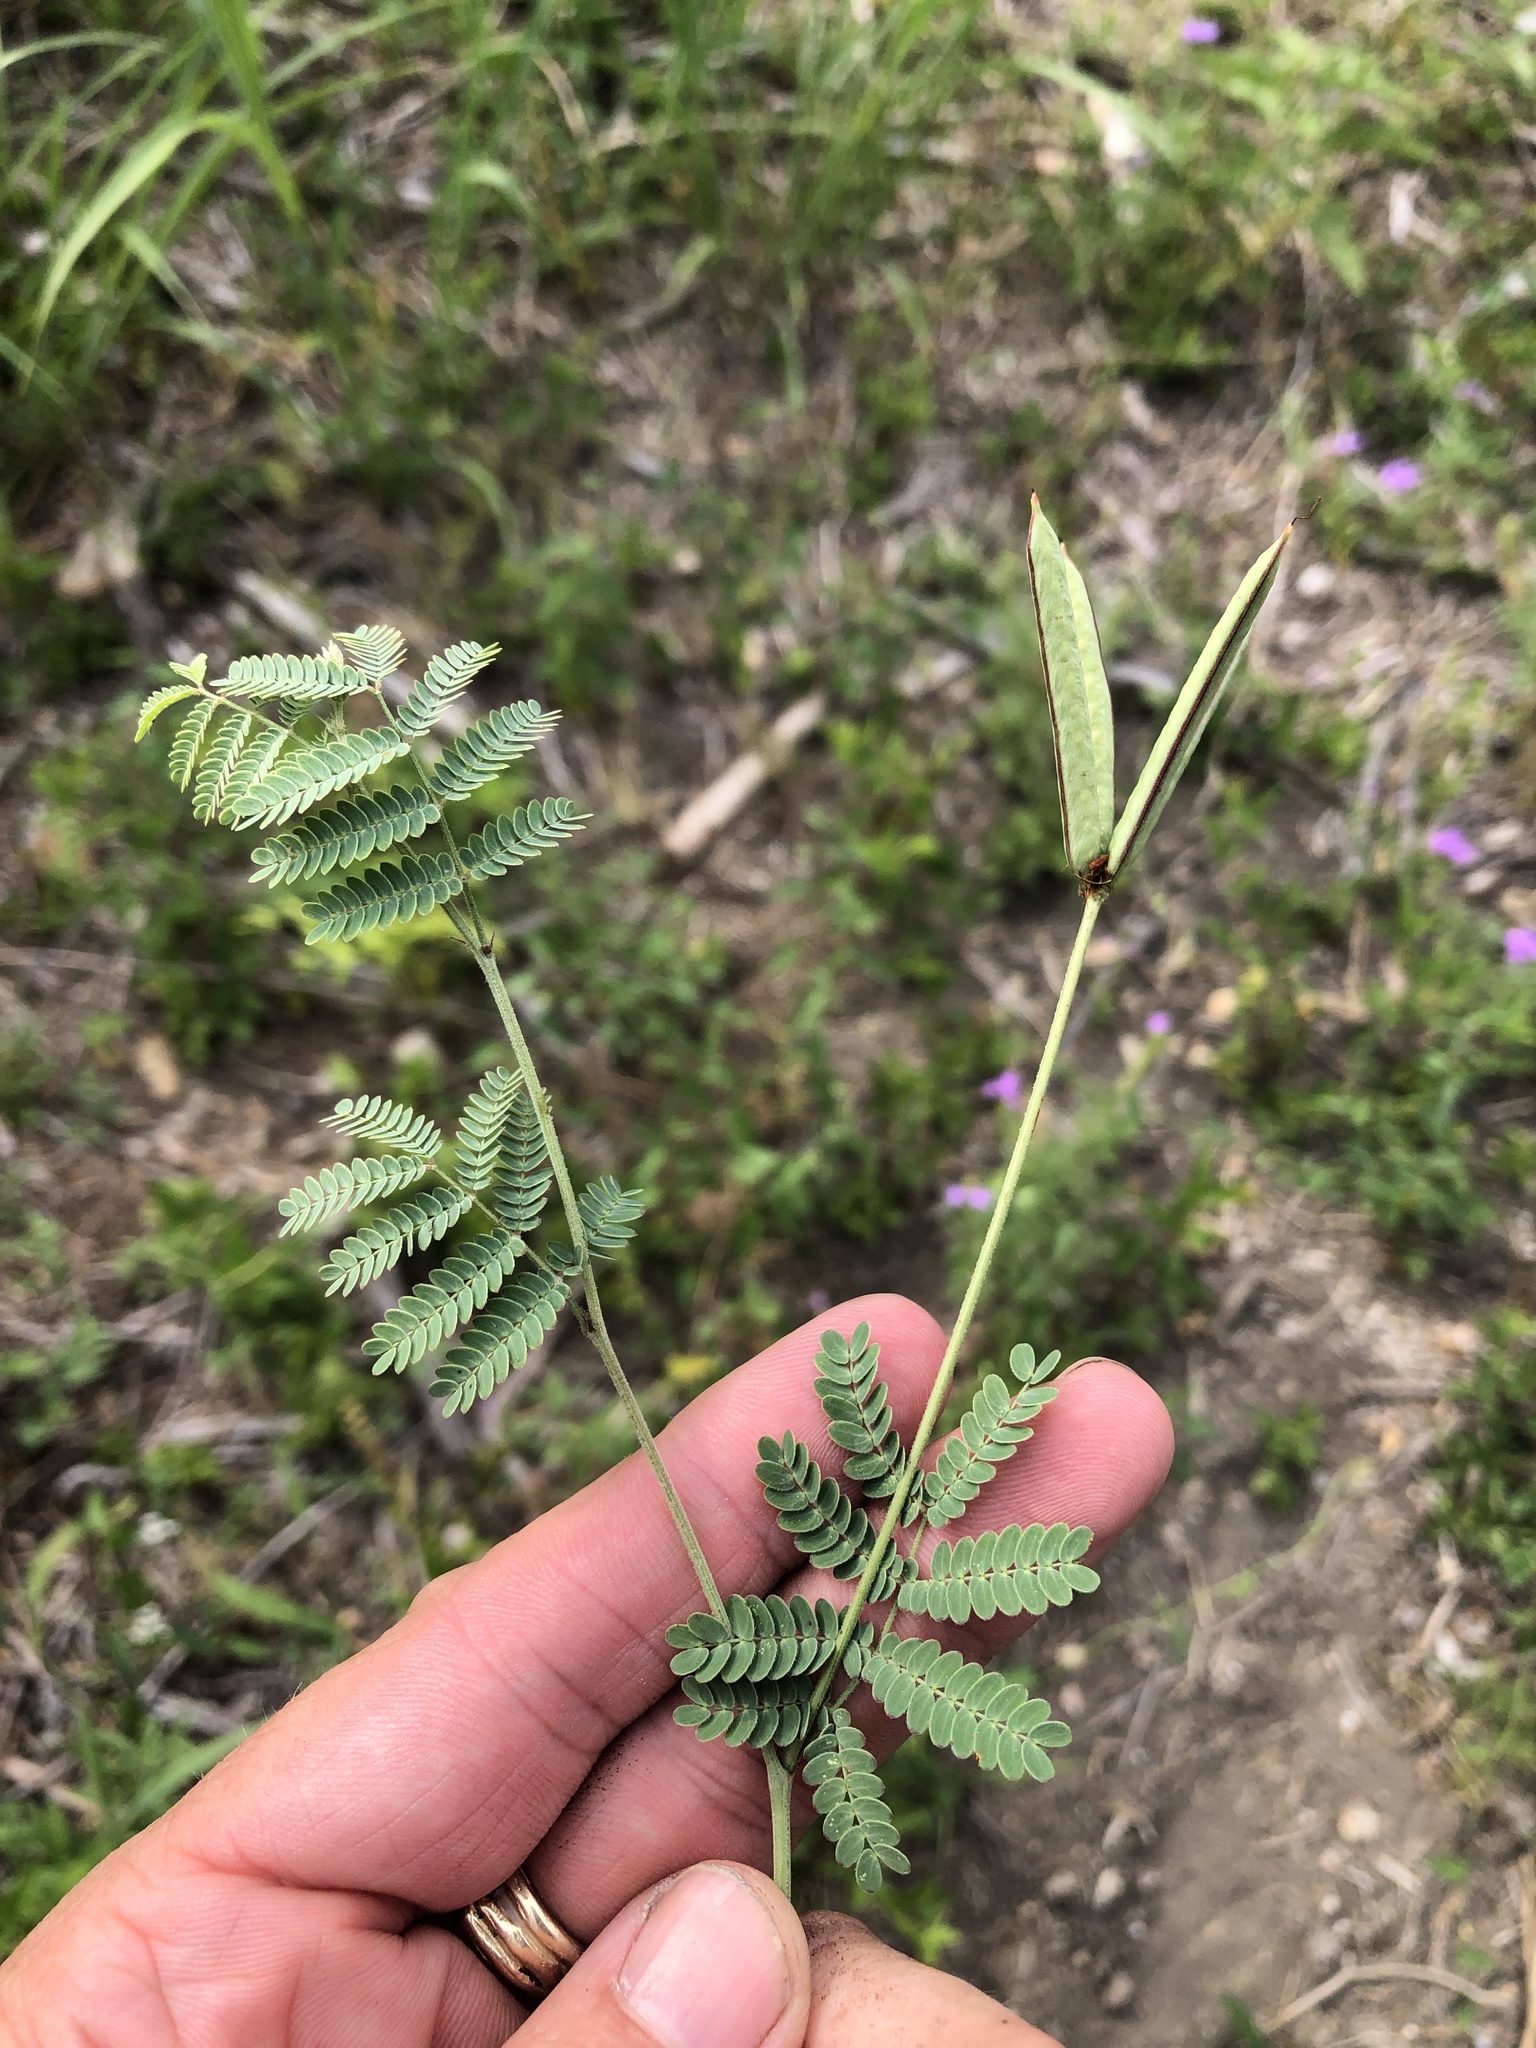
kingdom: Plantae
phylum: Tracheophyta
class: Magnoliopsida
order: Fabales
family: Fabaceae
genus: Desmanthus
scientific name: Desmanthus reticulatus
